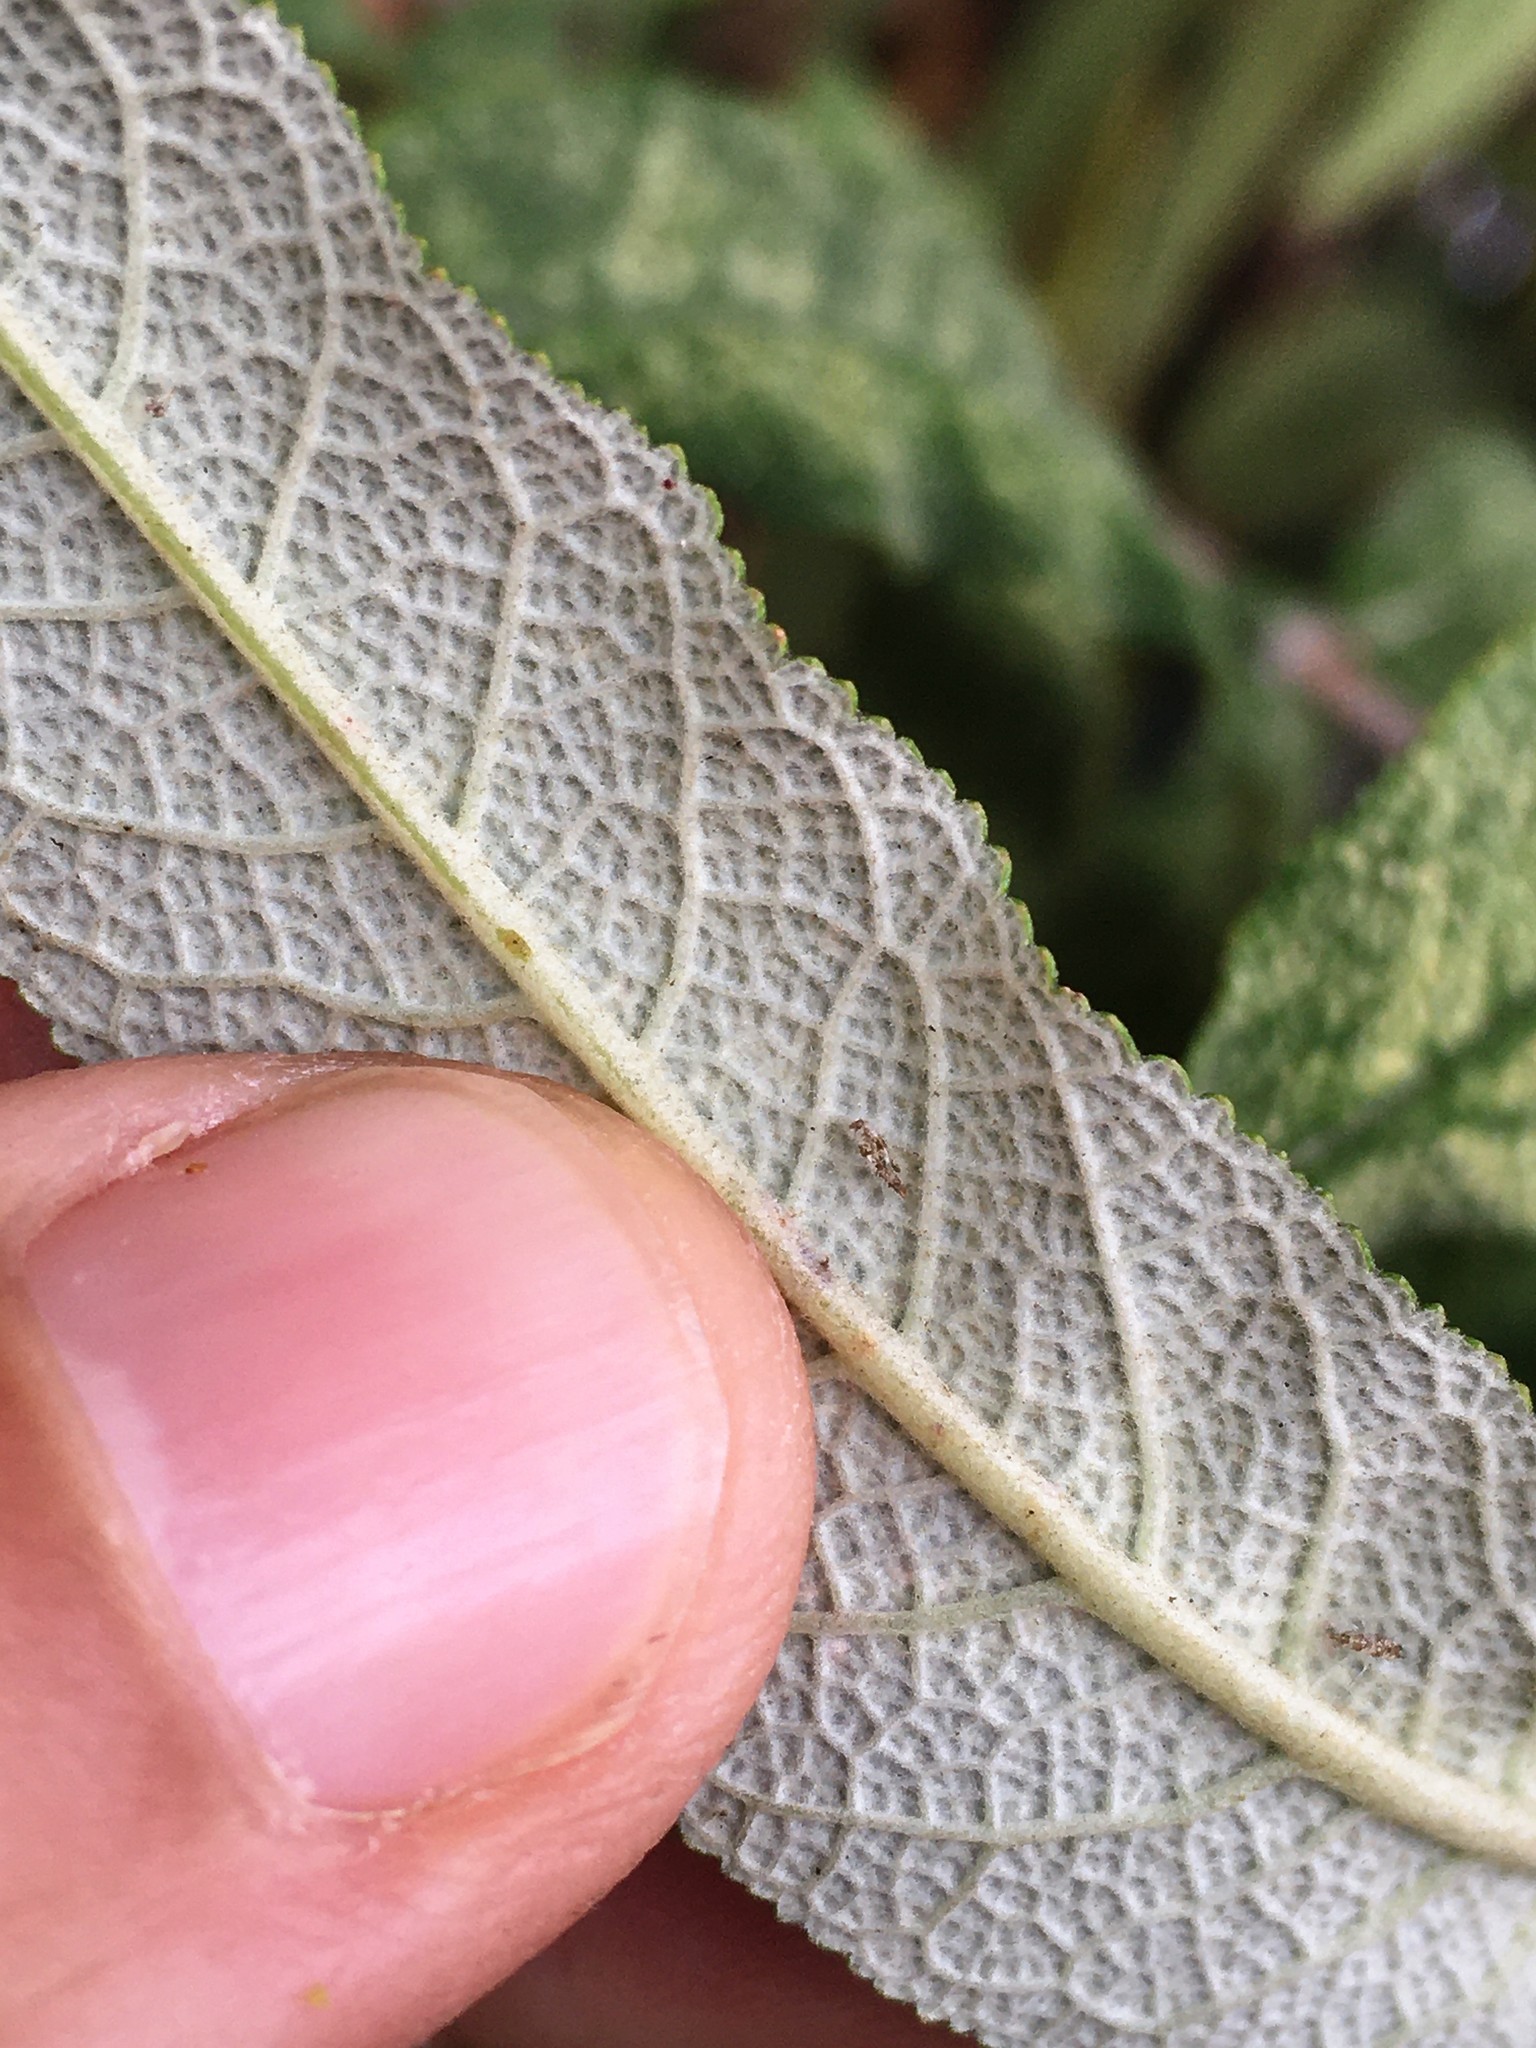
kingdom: Animalia
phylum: Arthropoda
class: Insecta
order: Hemiptera
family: Cicadellidae
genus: Eupteryx
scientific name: Eupteryx melissae
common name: Herb leafhopper
